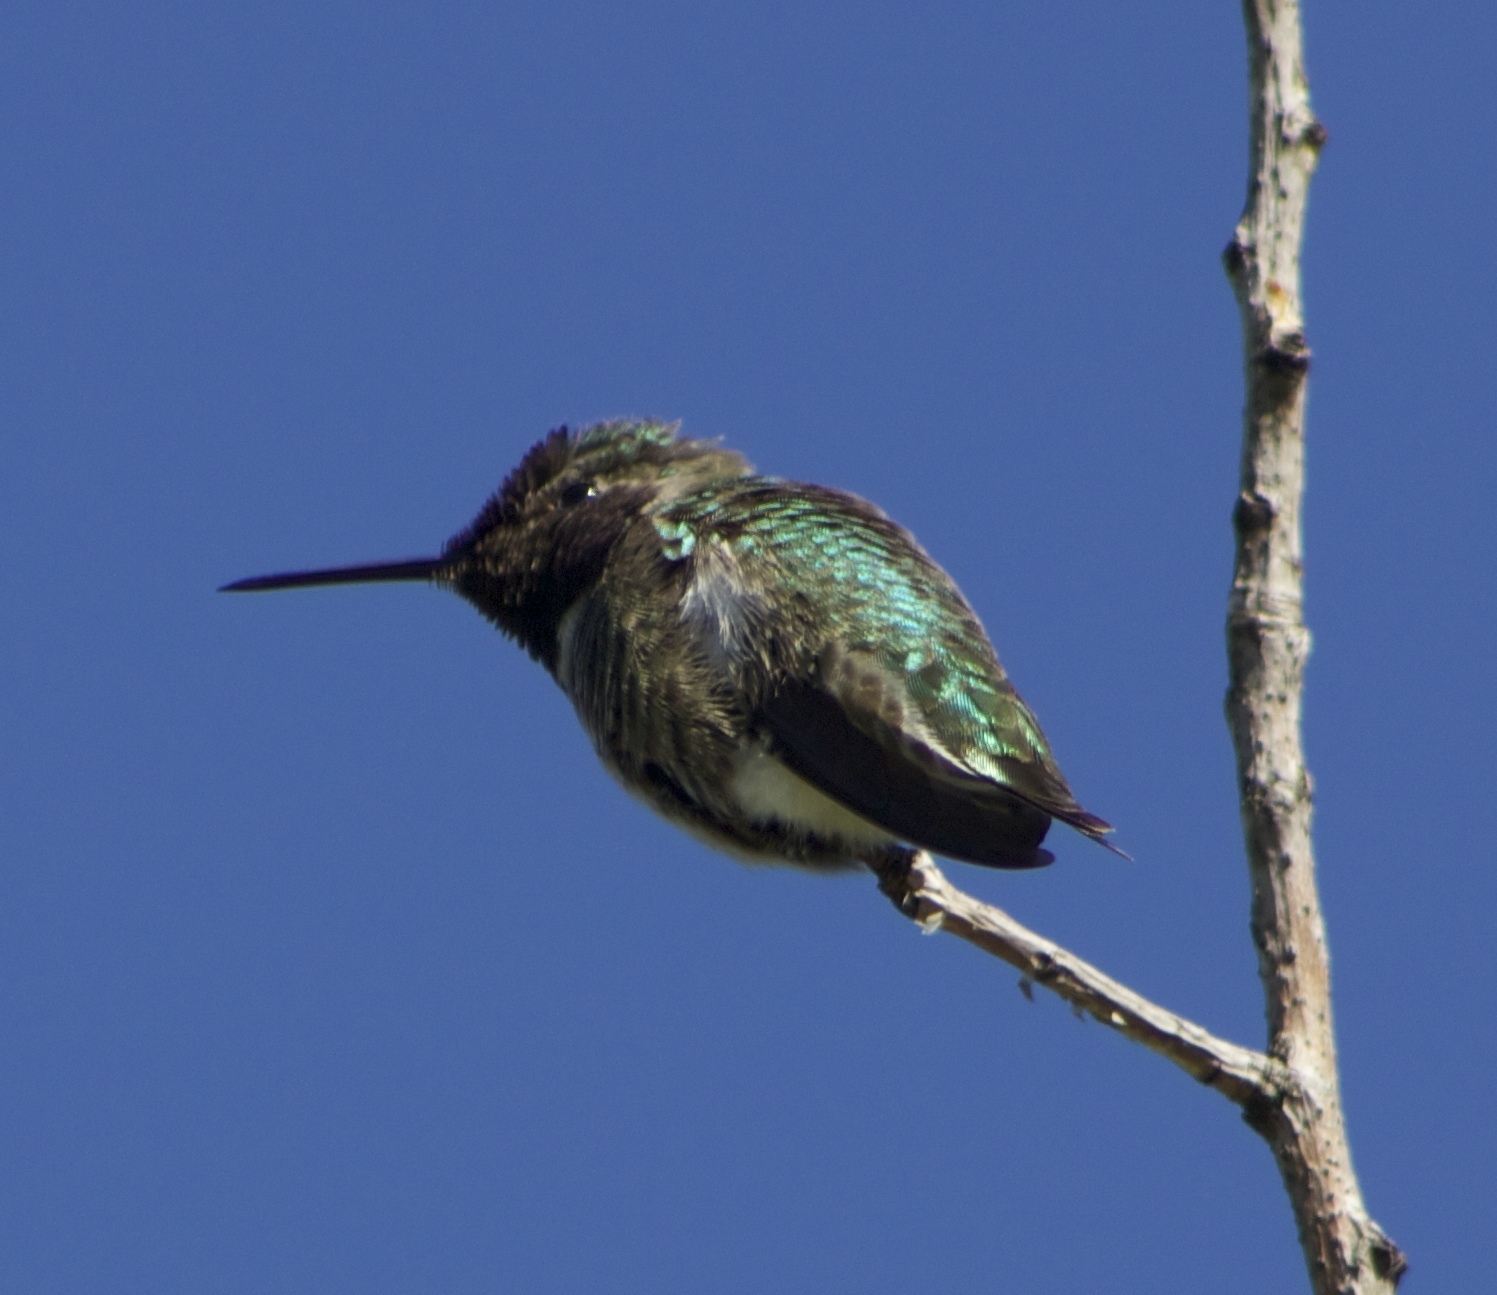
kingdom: Animalia
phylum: Chordata
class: Aves
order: Apodiformes
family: Trochilidae
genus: Calypte
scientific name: Calypte anna
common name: Anna's hummingbird
